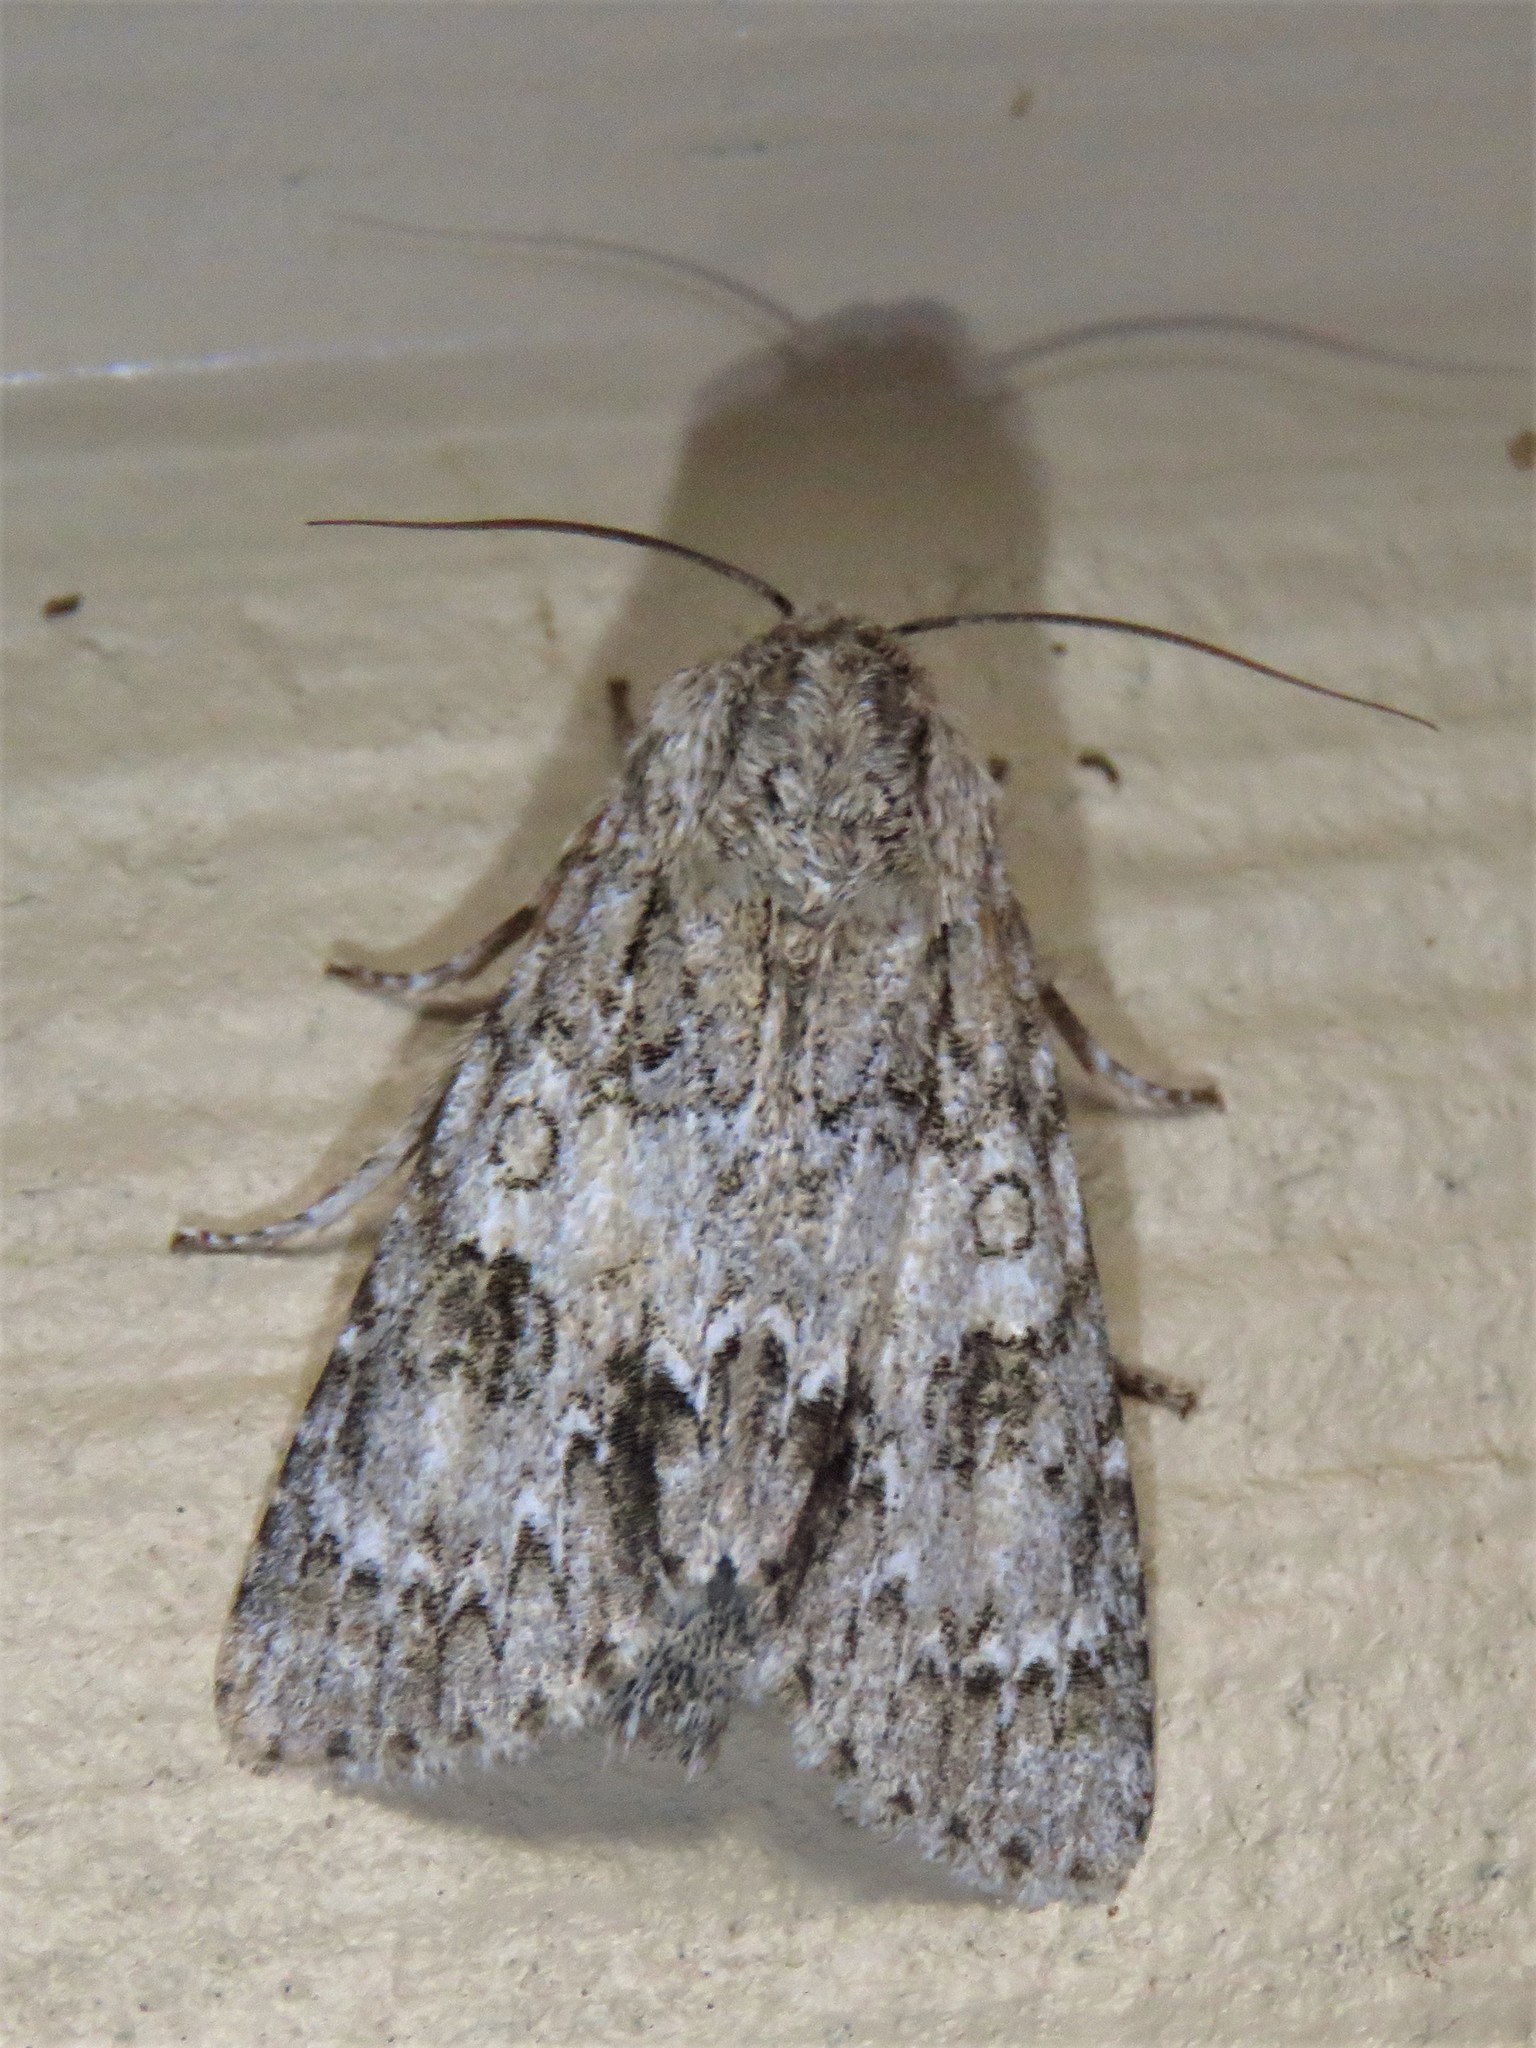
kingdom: Animalia
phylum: Arthropoda
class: Insecta
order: Lepidoptera
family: Noctuidae
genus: Acronicta
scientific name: Acronicta rubricoma
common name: Hackberry dagger
